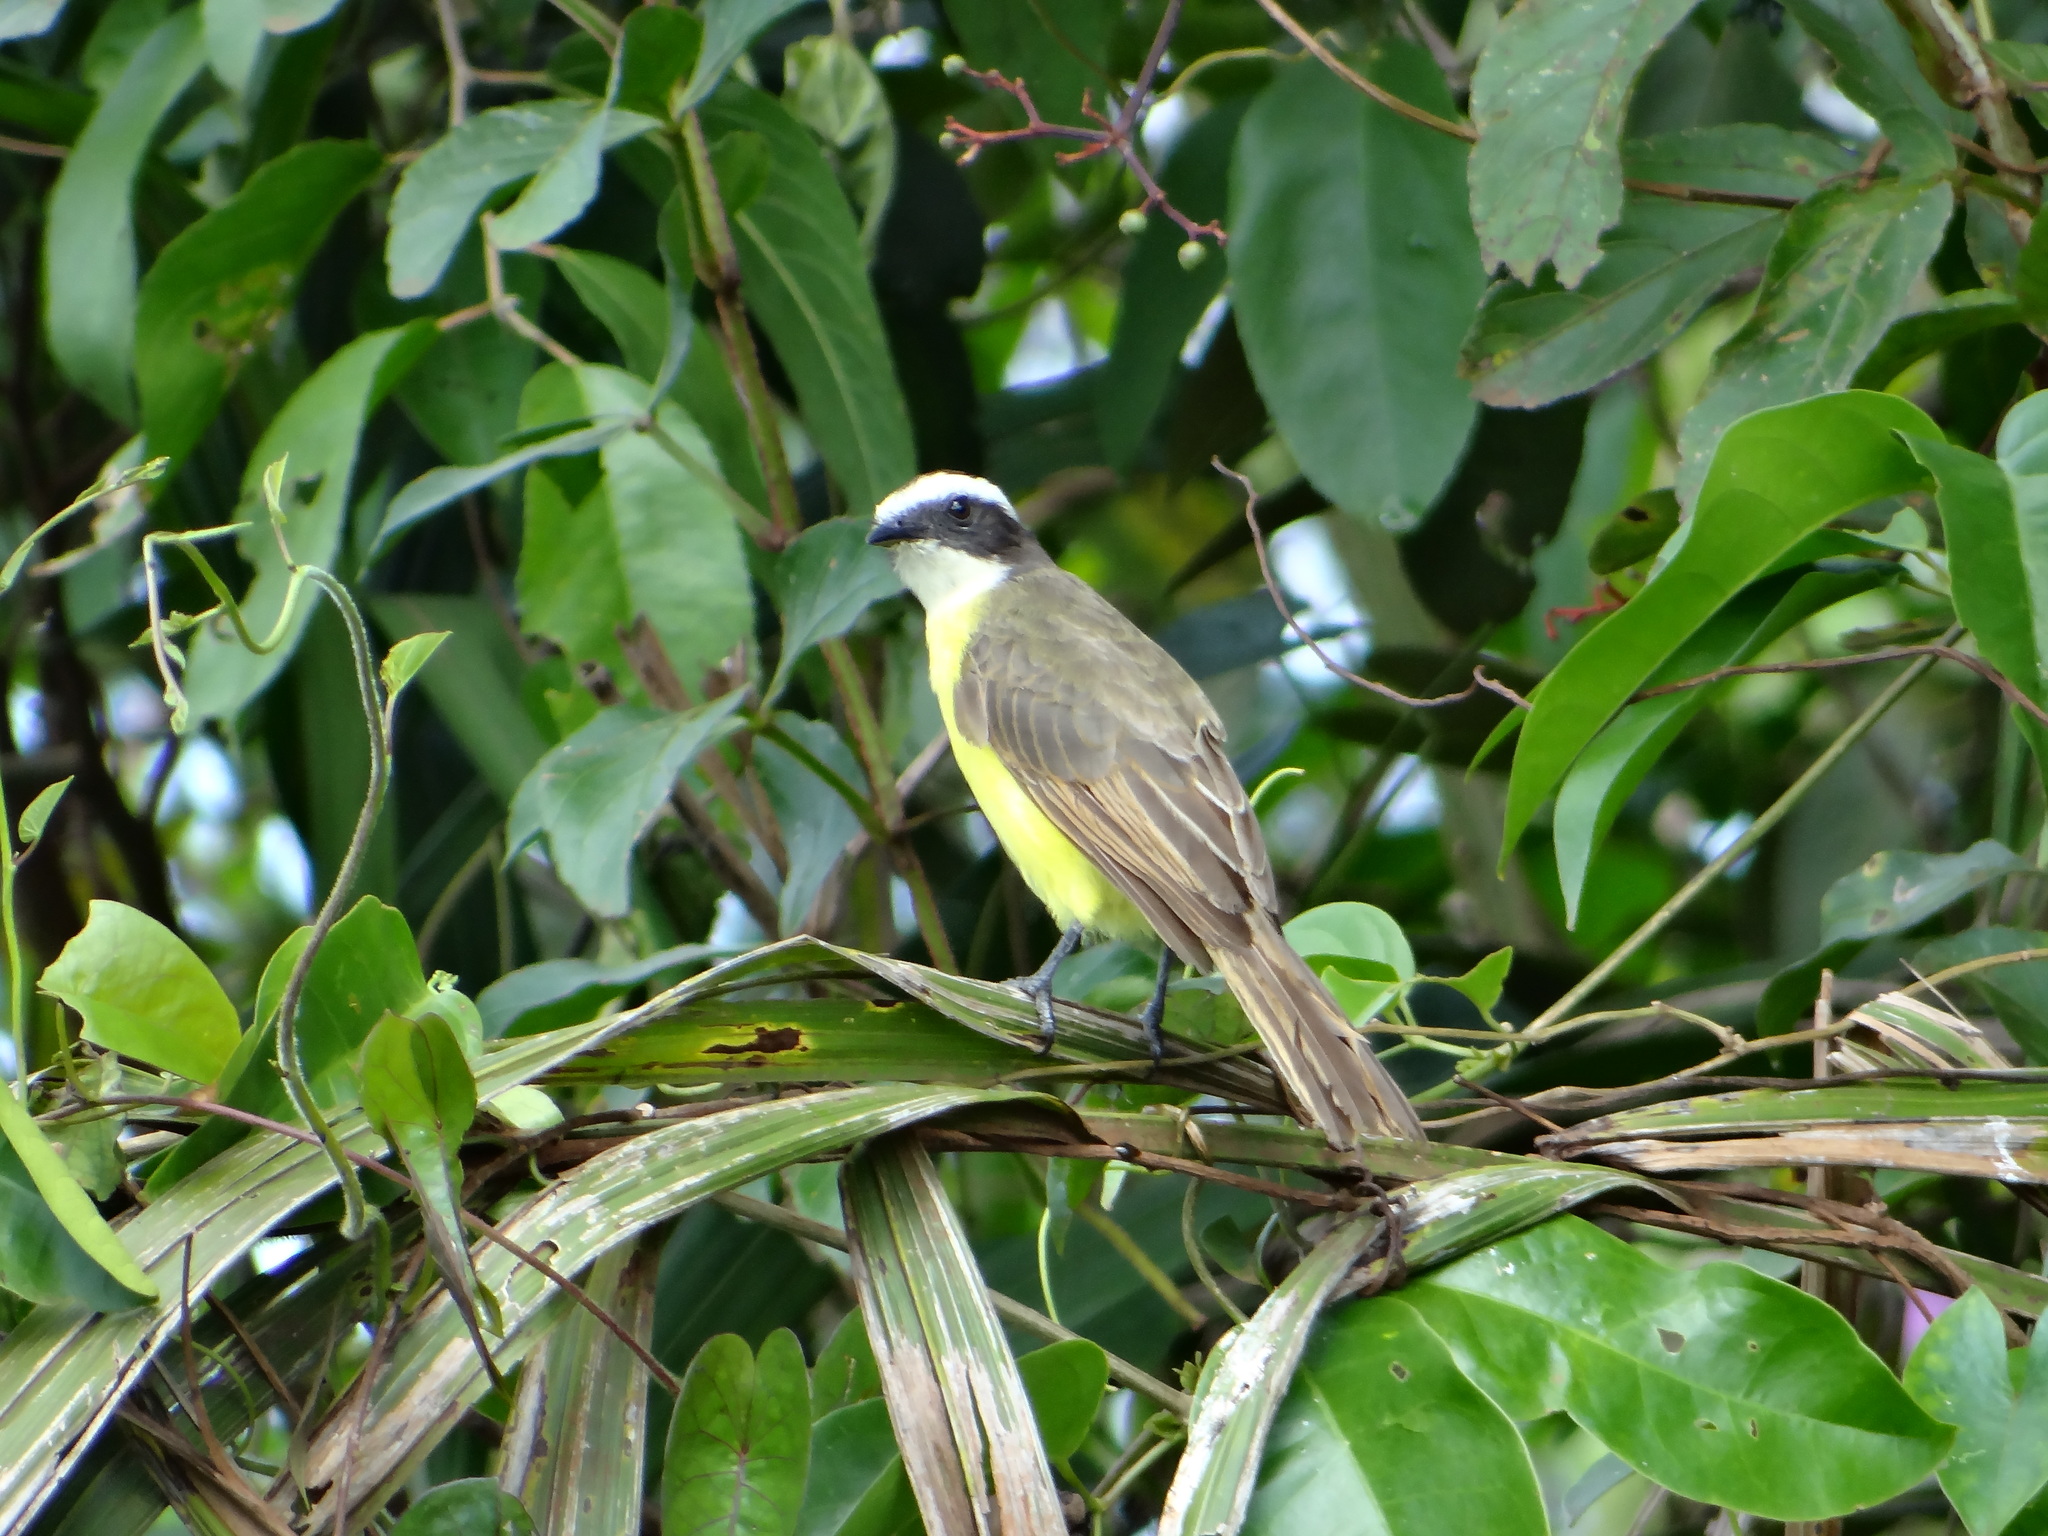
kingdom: Animalia
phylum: Chordata
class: Aves
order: Passeriformes
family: Tyrannidae
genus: Myiozetetes
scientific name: Myiozetetes cayanensis
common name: Rusty-margined flycatcher
